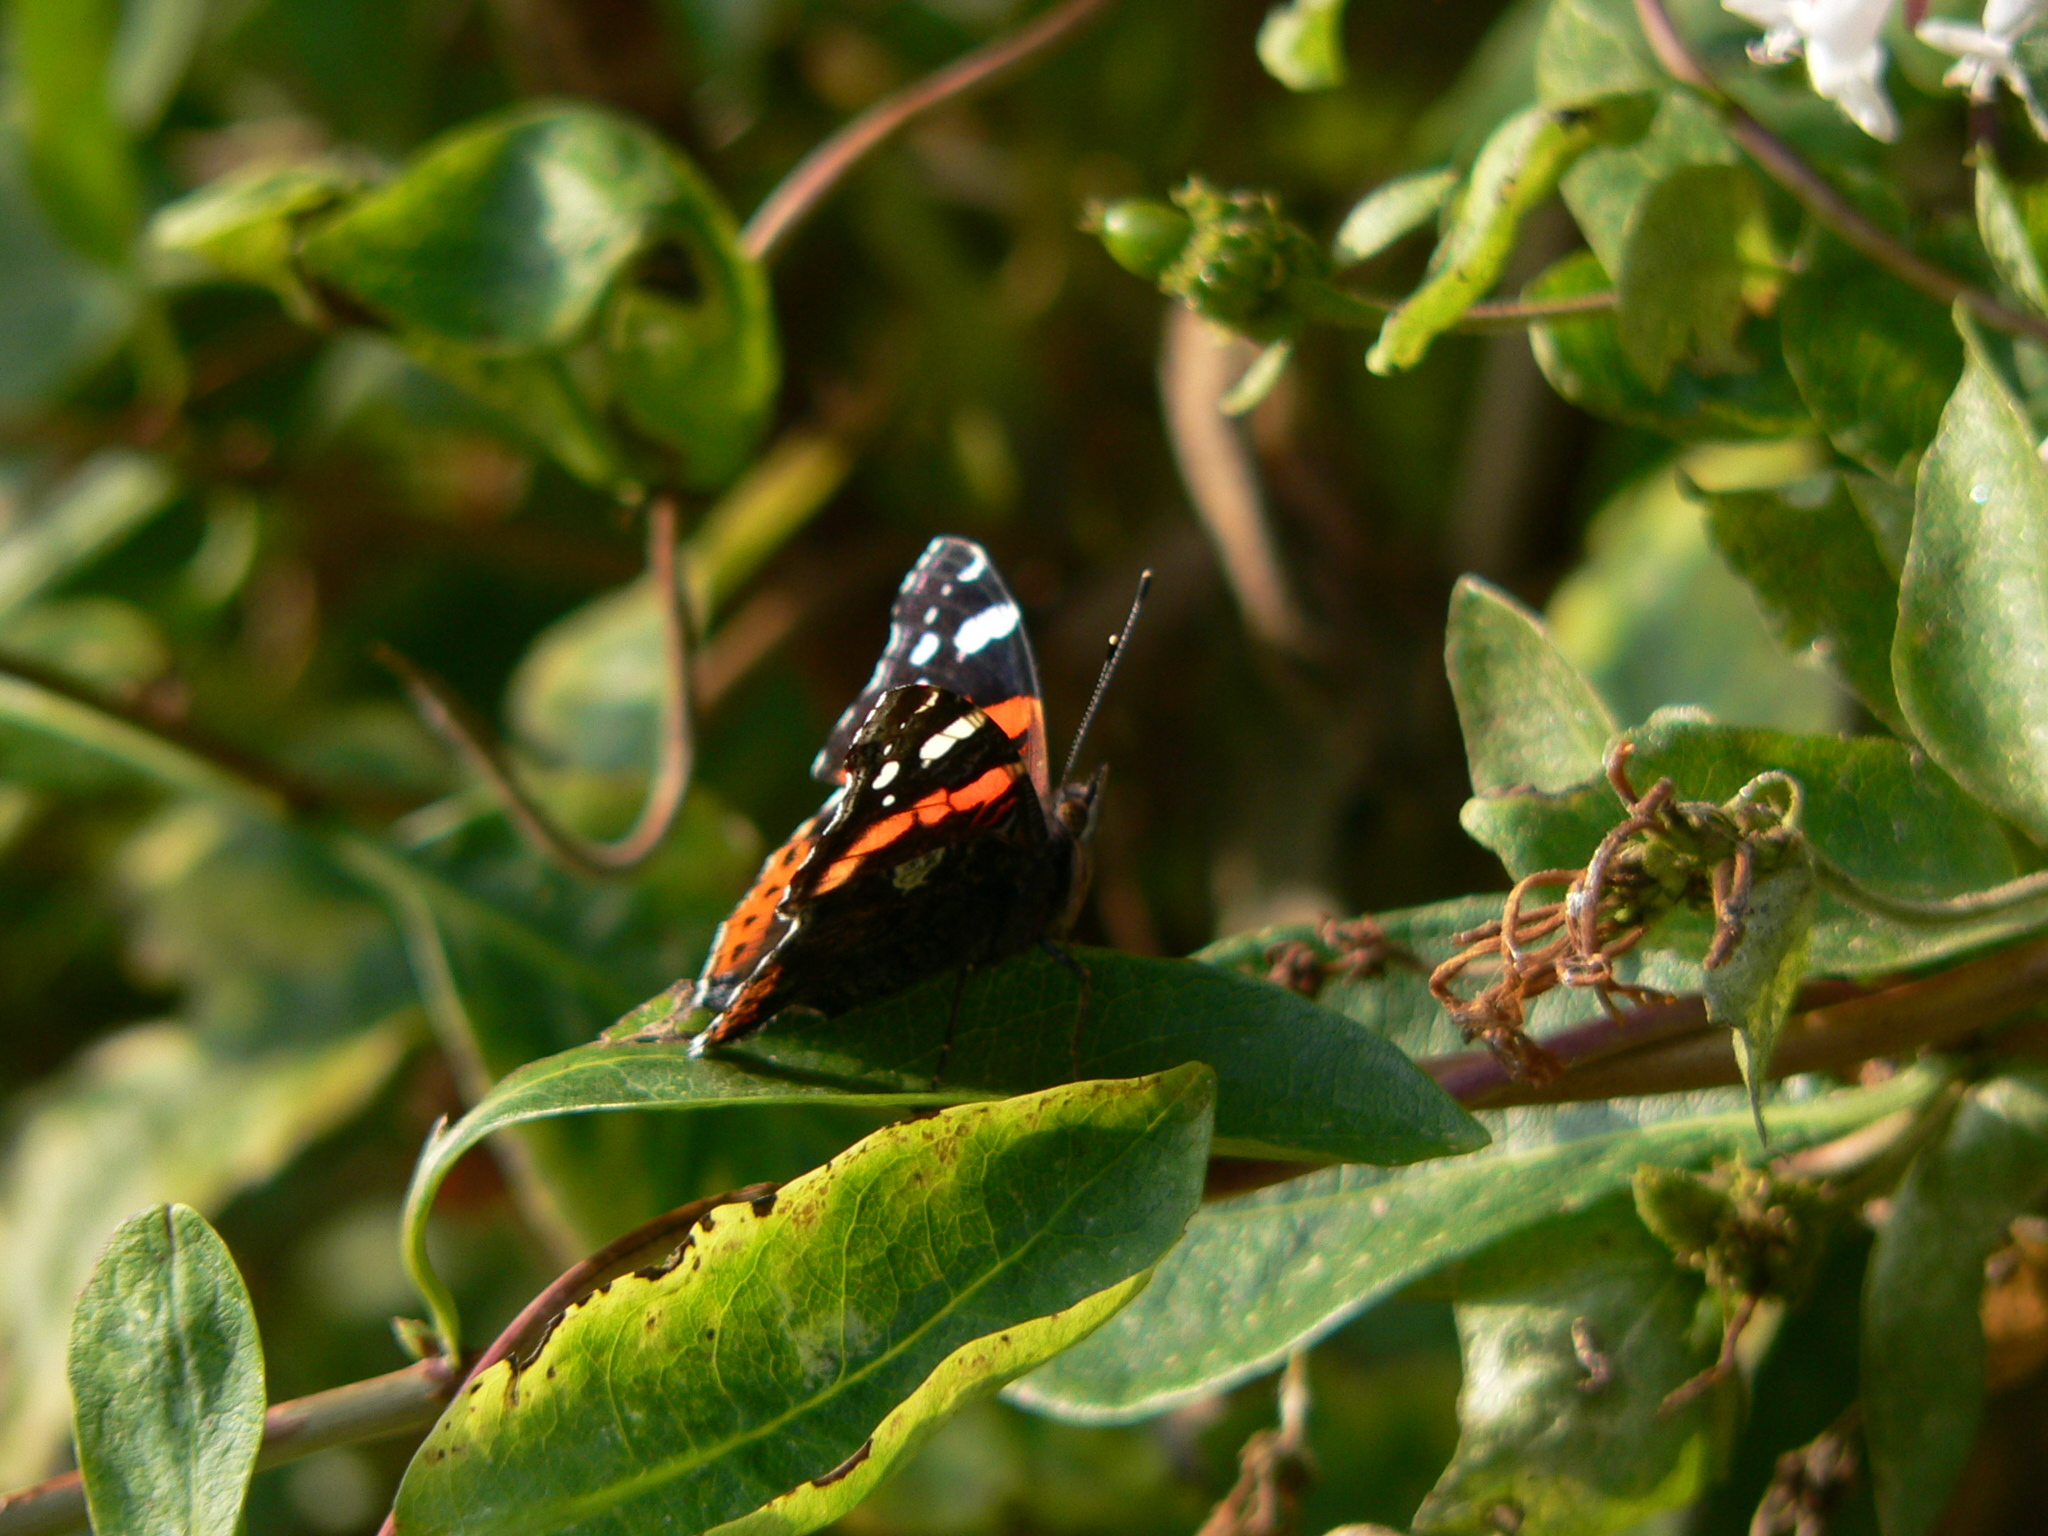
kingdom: Animalia
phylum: Arthropoda
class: Insecta
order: Lepidoptera
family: Nymphalidae
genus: Vanessa
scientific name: Vanessa atalanta
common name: Red admiral
